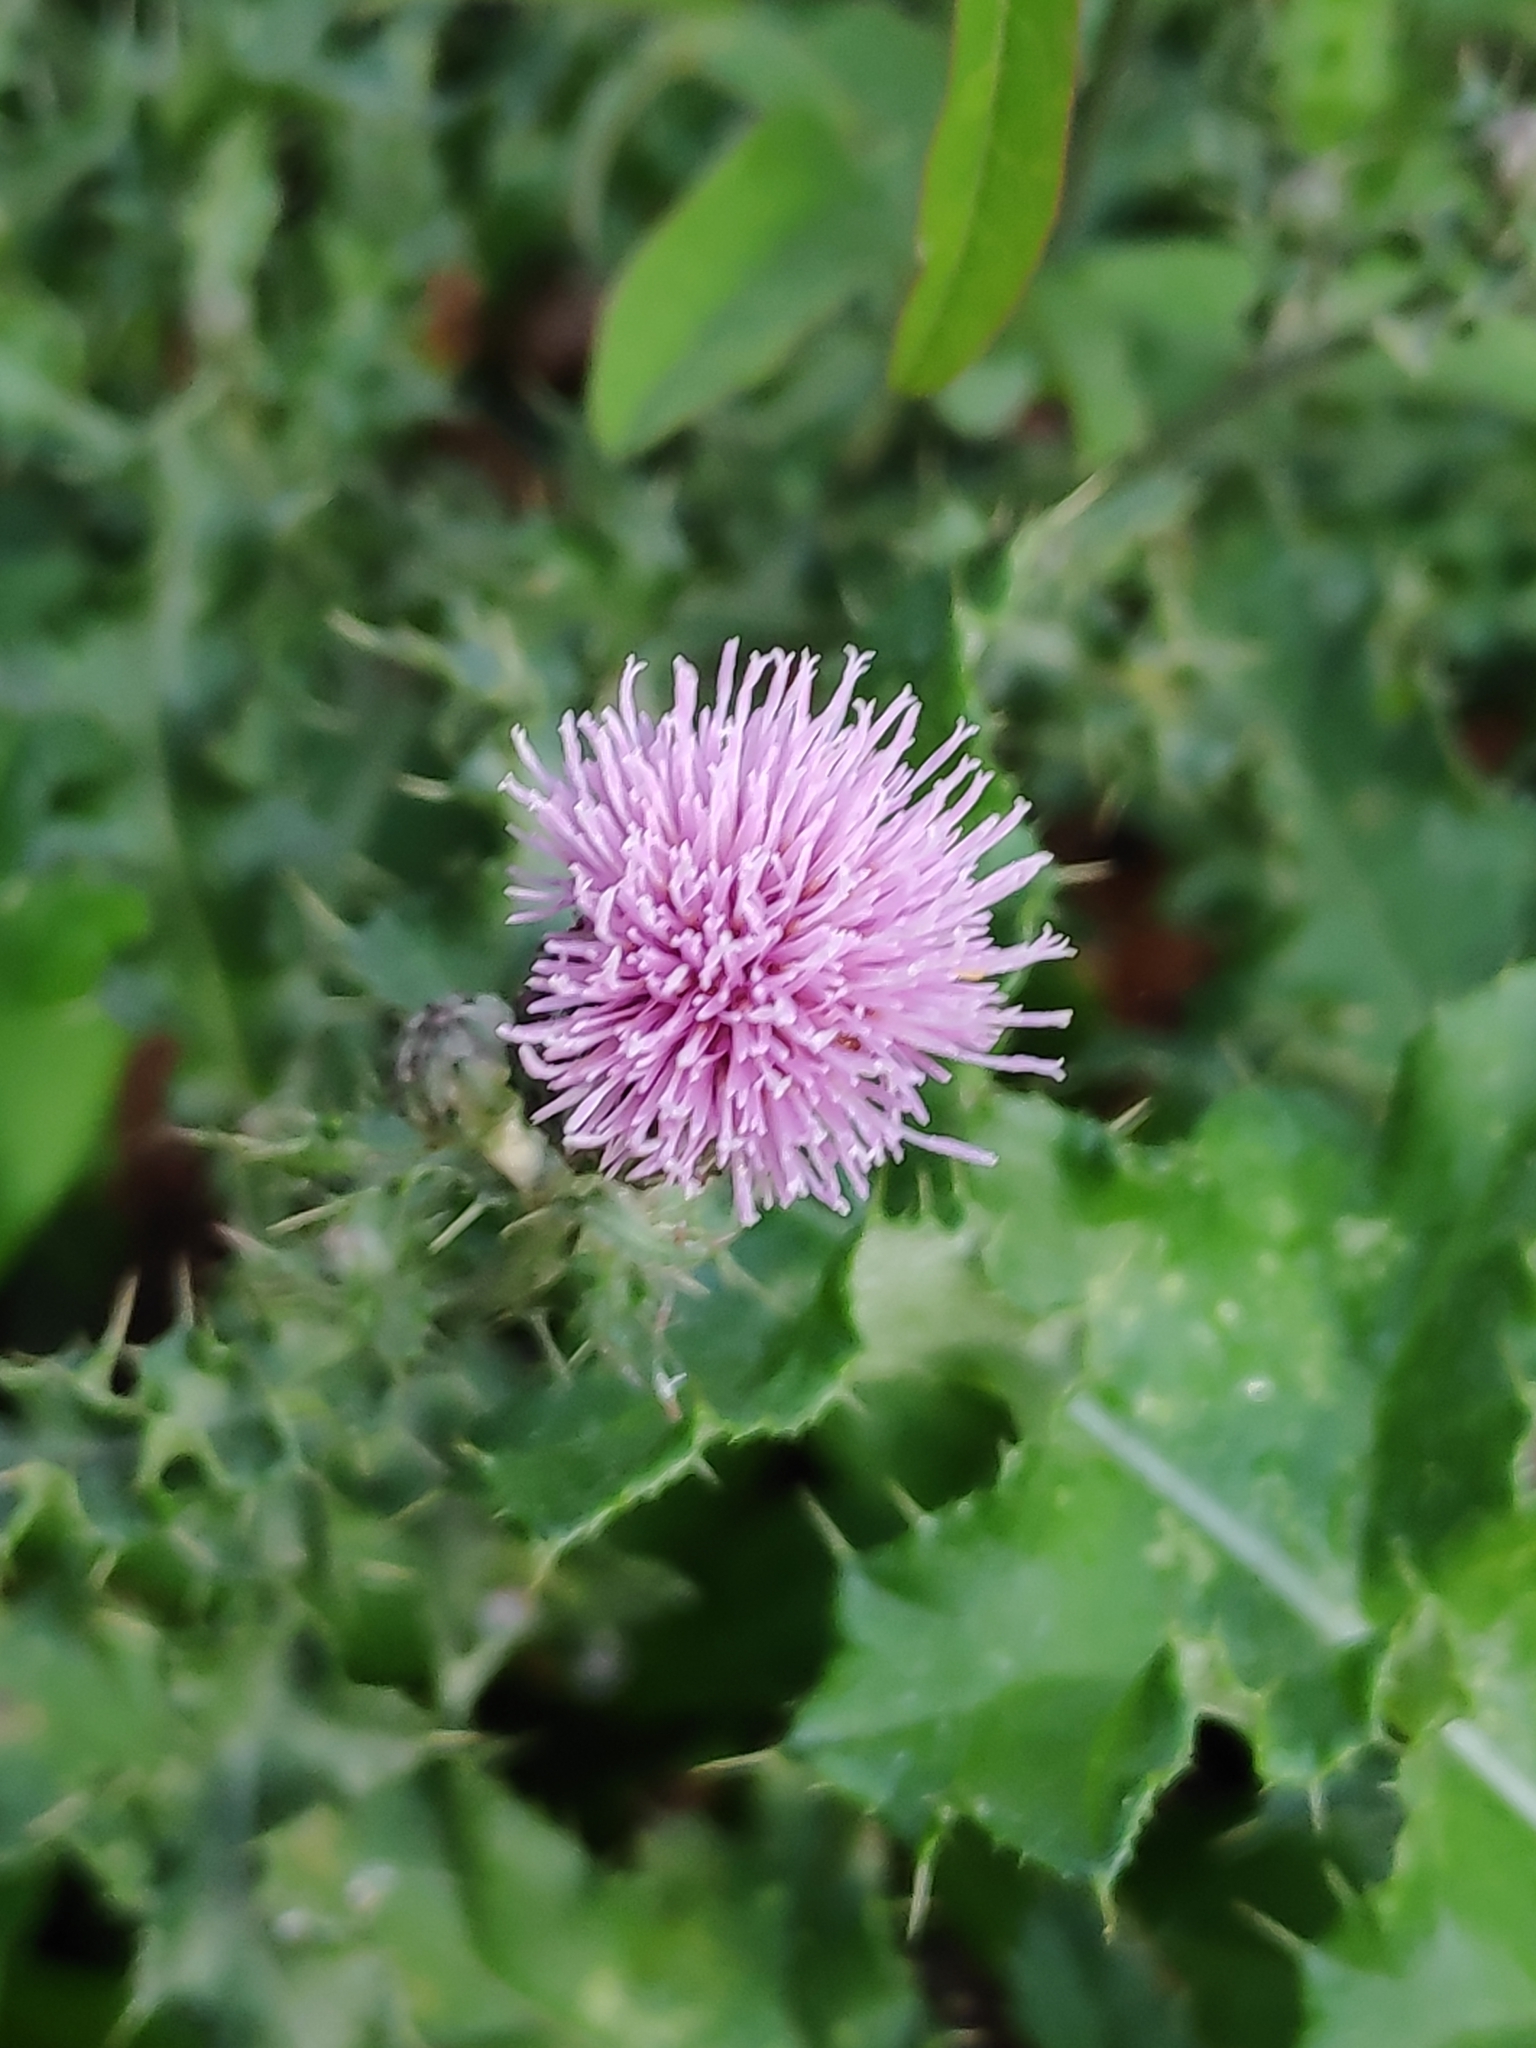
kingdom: Plantae
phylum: Tracheophyta
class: Magnoliopsida
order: Asterales
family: Asteraceae
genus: Cirsium
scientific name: Cirsium arvense
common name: Creeping thistle
